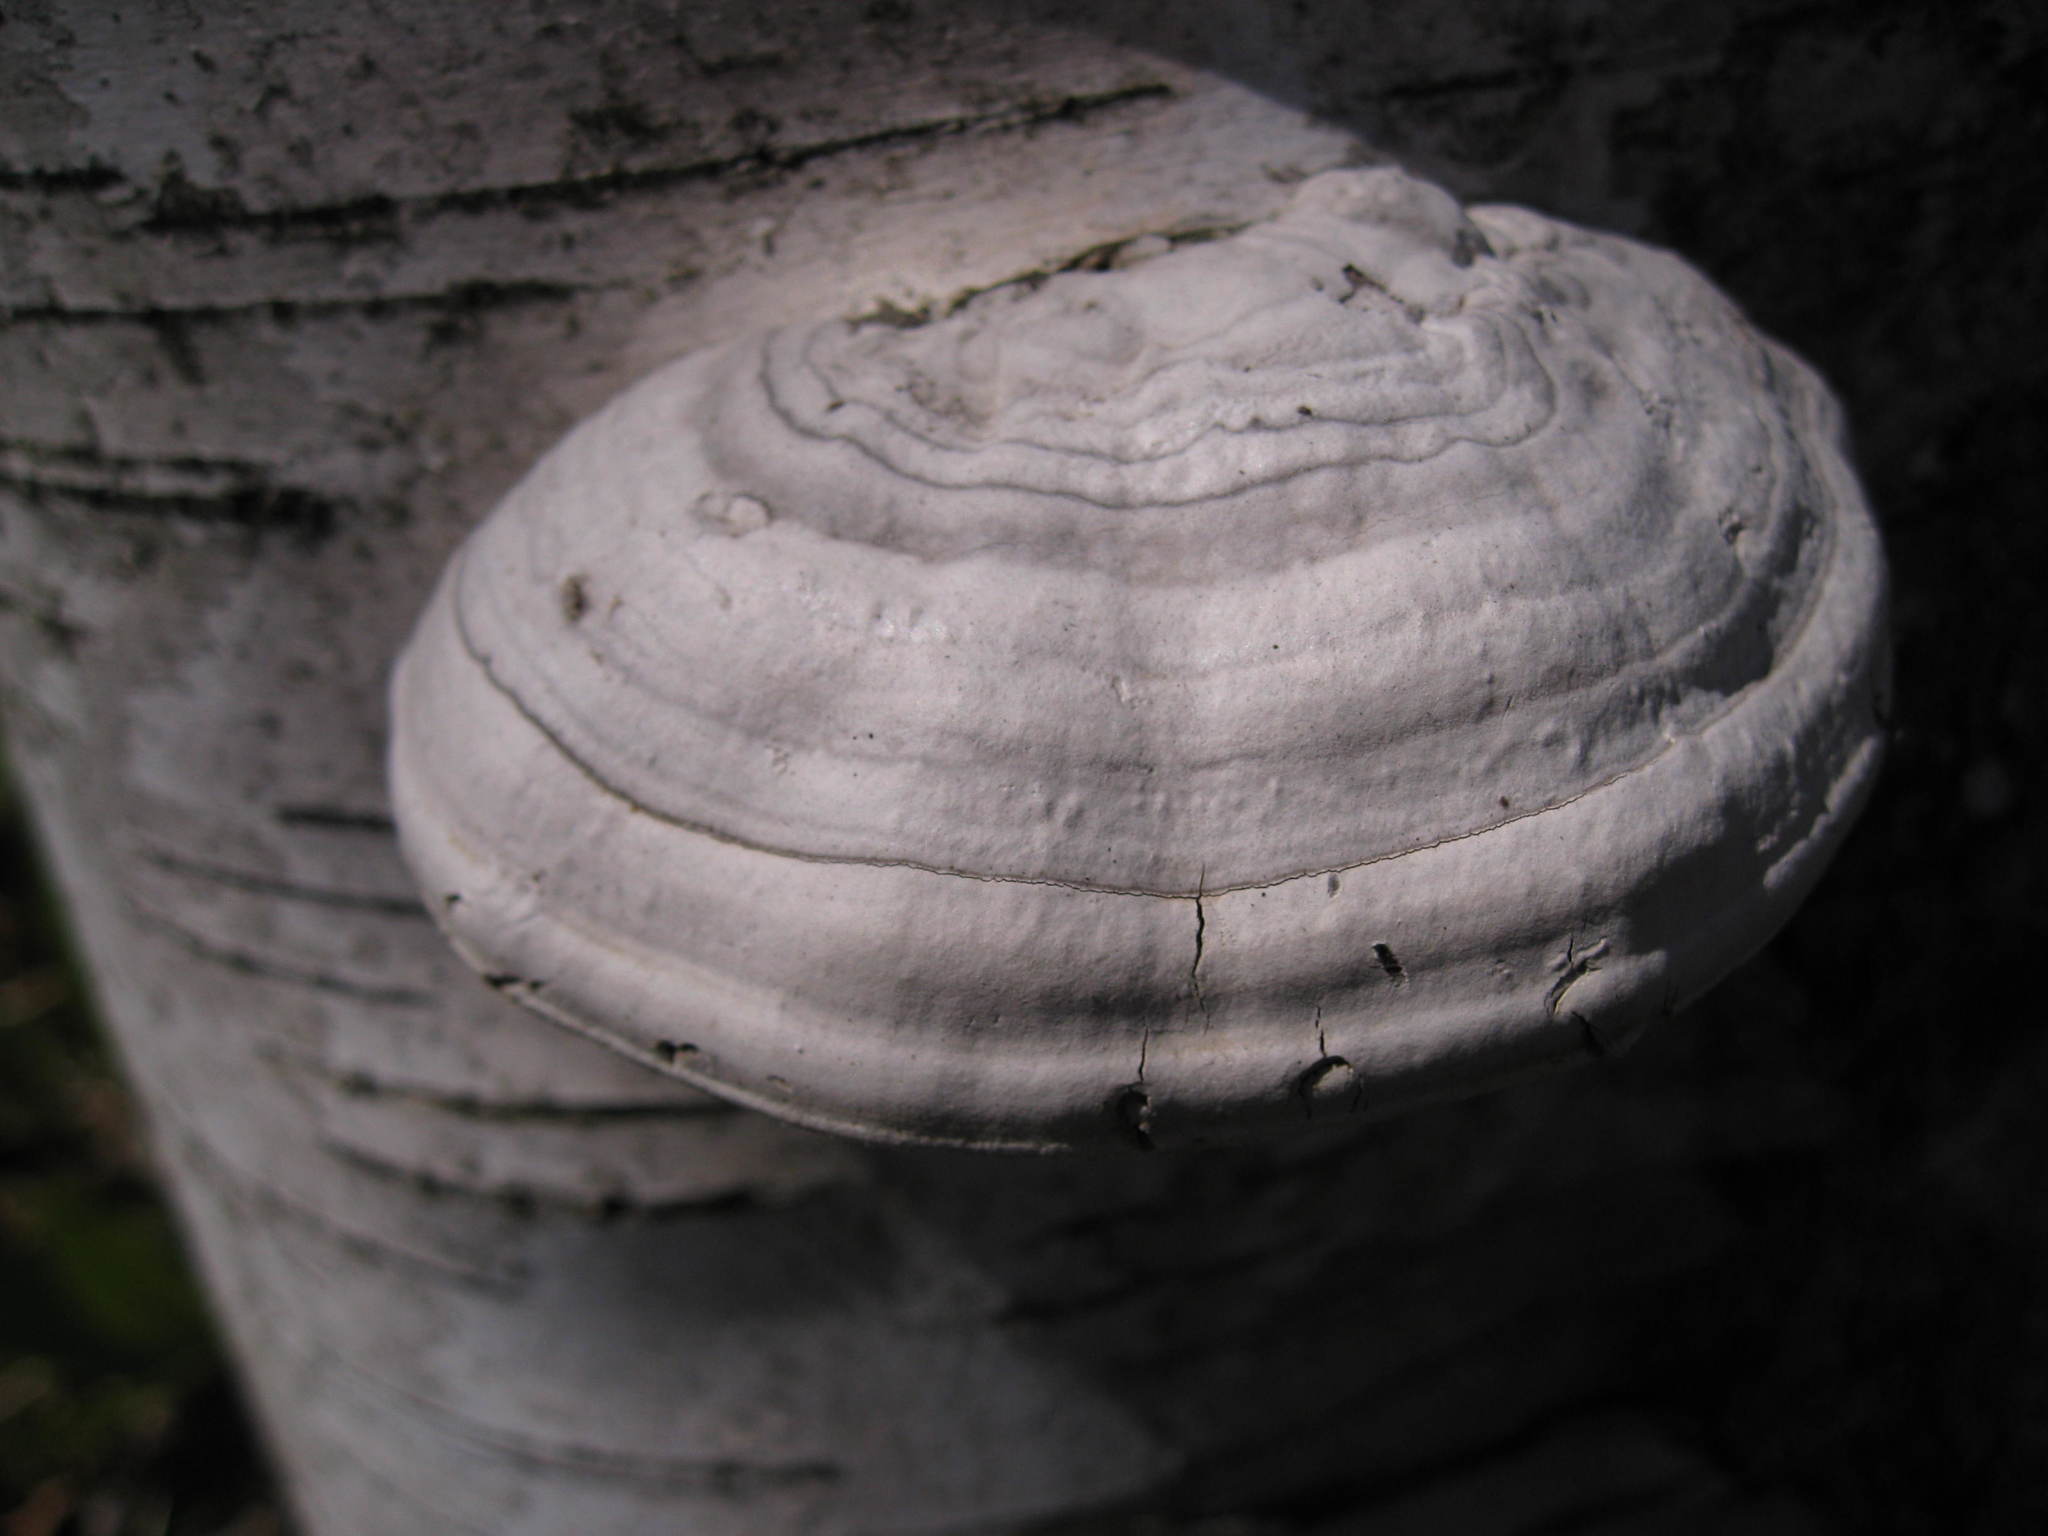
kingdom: Fungi
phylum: Basidiomycota
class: Agaricomycetes
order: Polyporales
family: Polyporaceae
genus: Fomes
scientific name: Fomes fomentarius
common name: Hoof fungus
